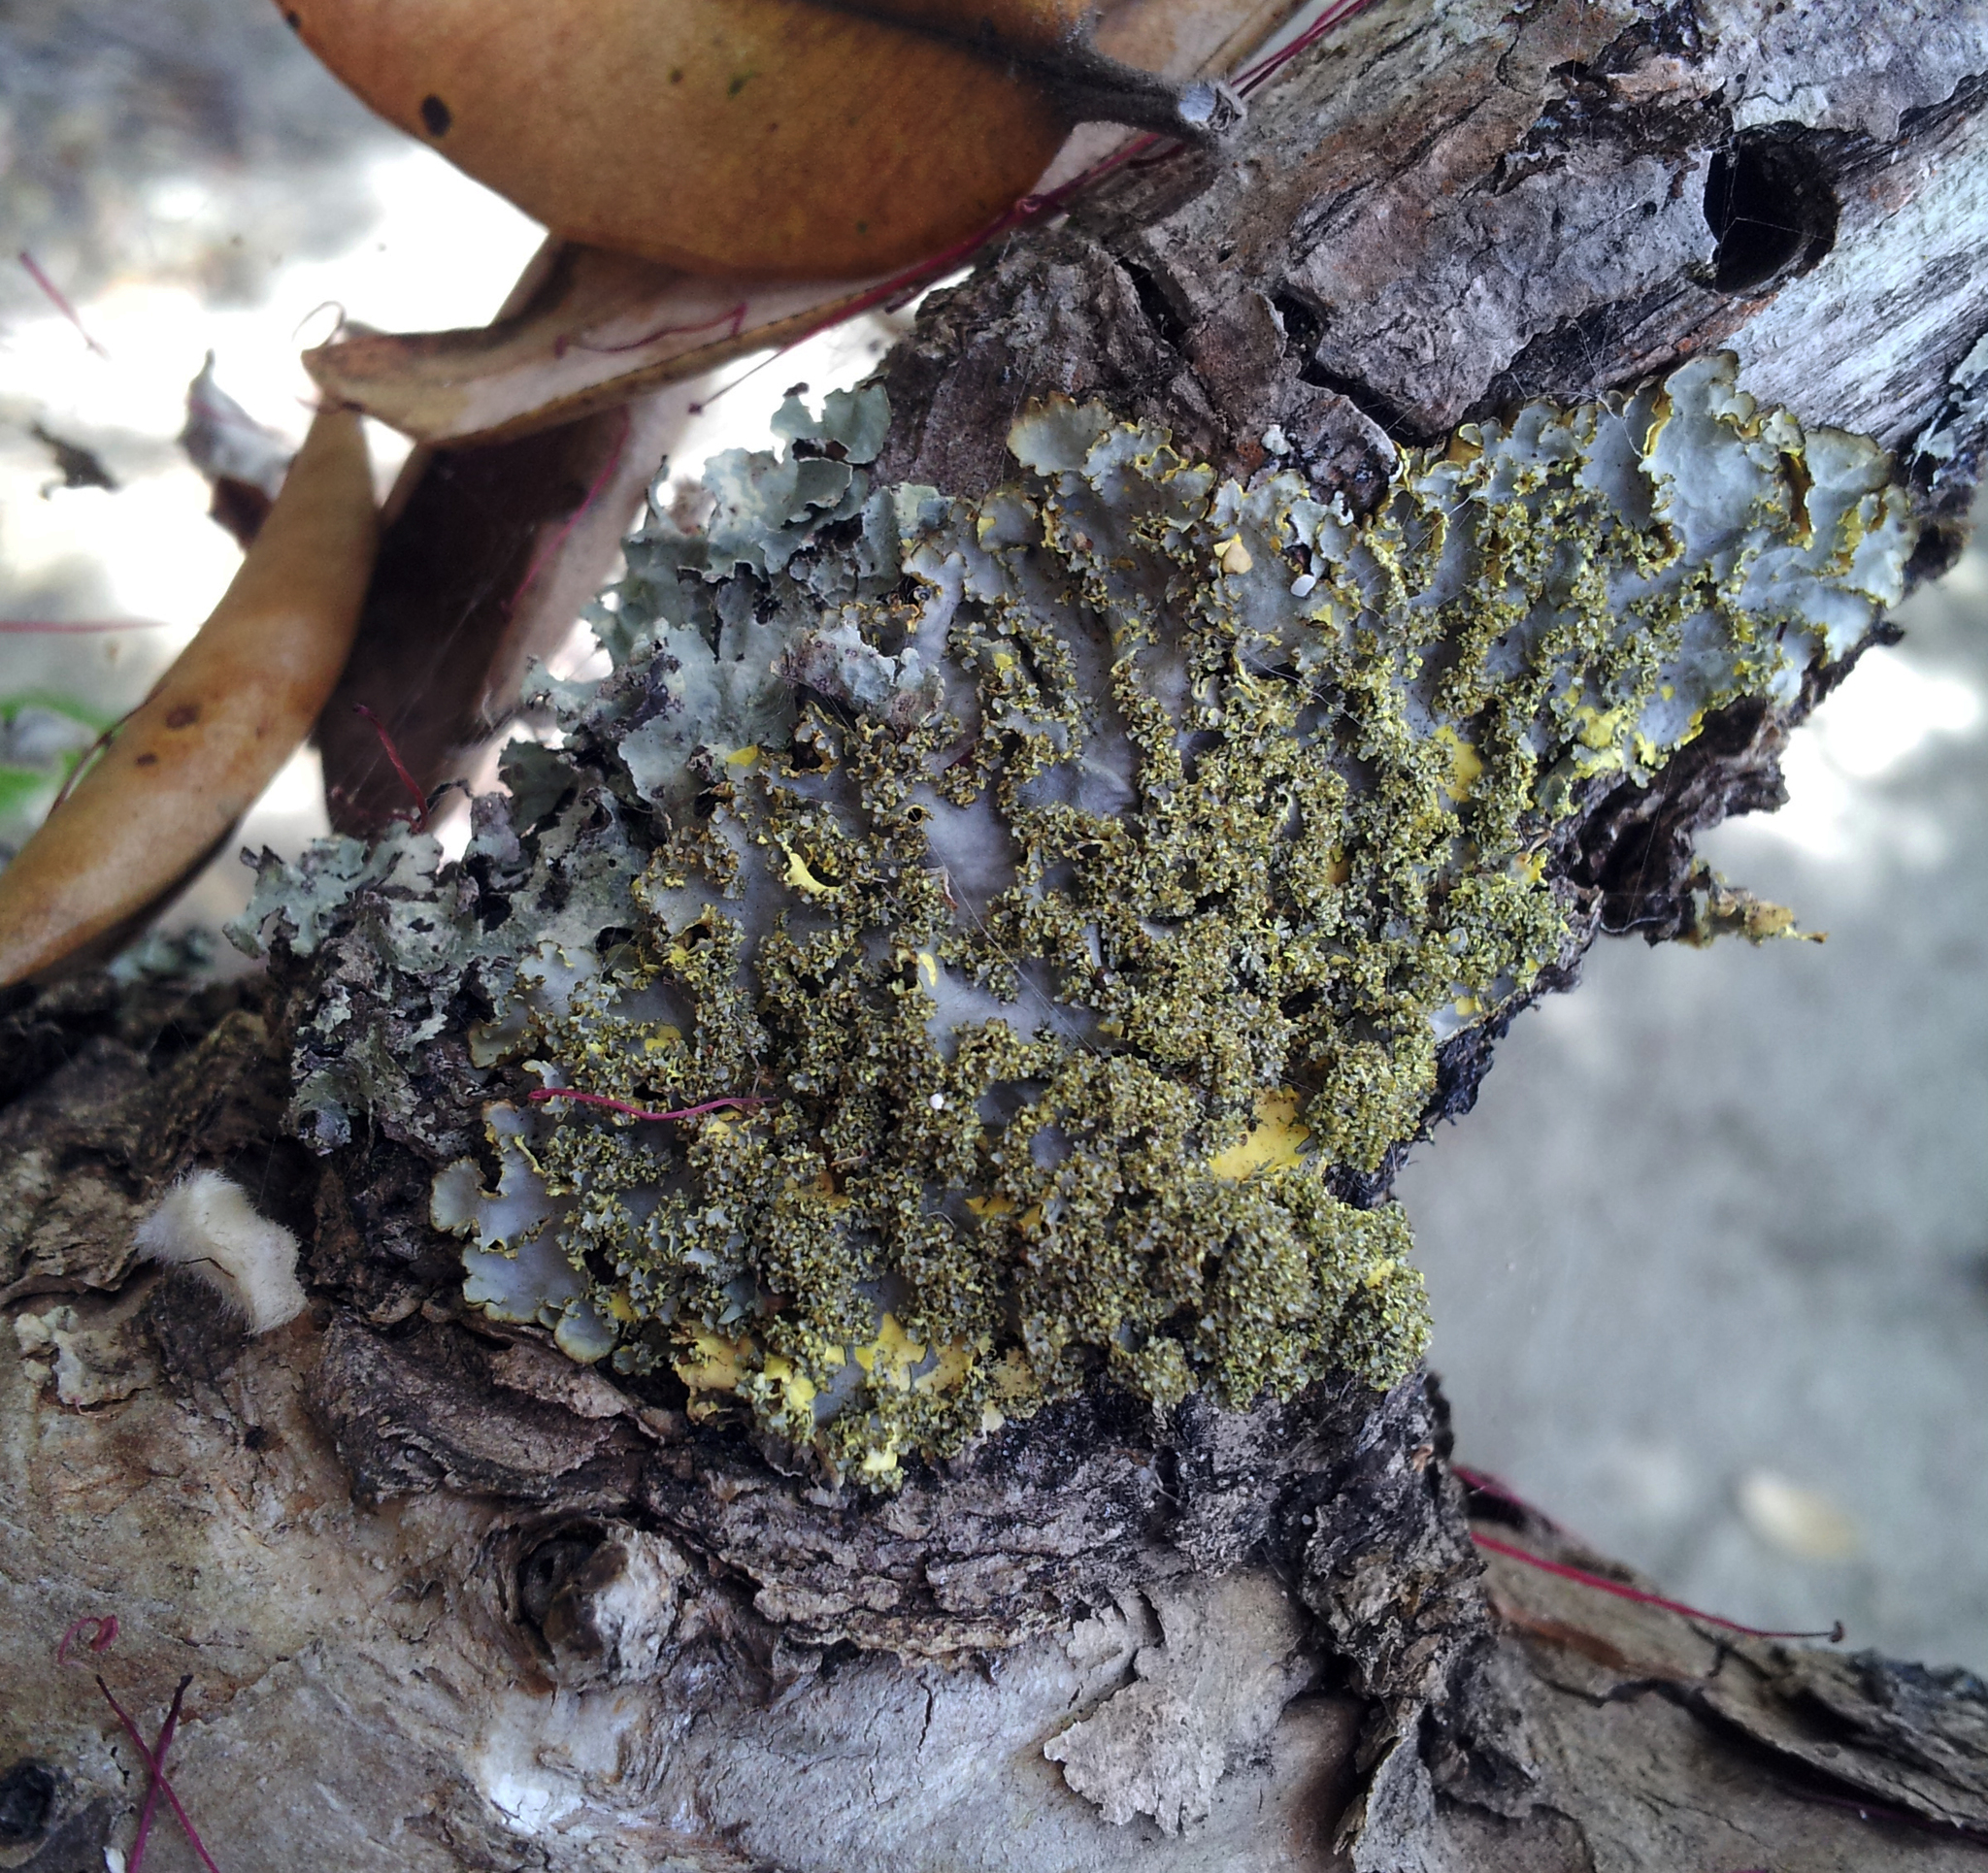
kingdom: Fungi
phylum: Ascomycota
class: Lecanoromycetes
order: Peltigerales
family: Lobariaceae
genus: Podostictina
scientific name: Podostictina pickeringii
